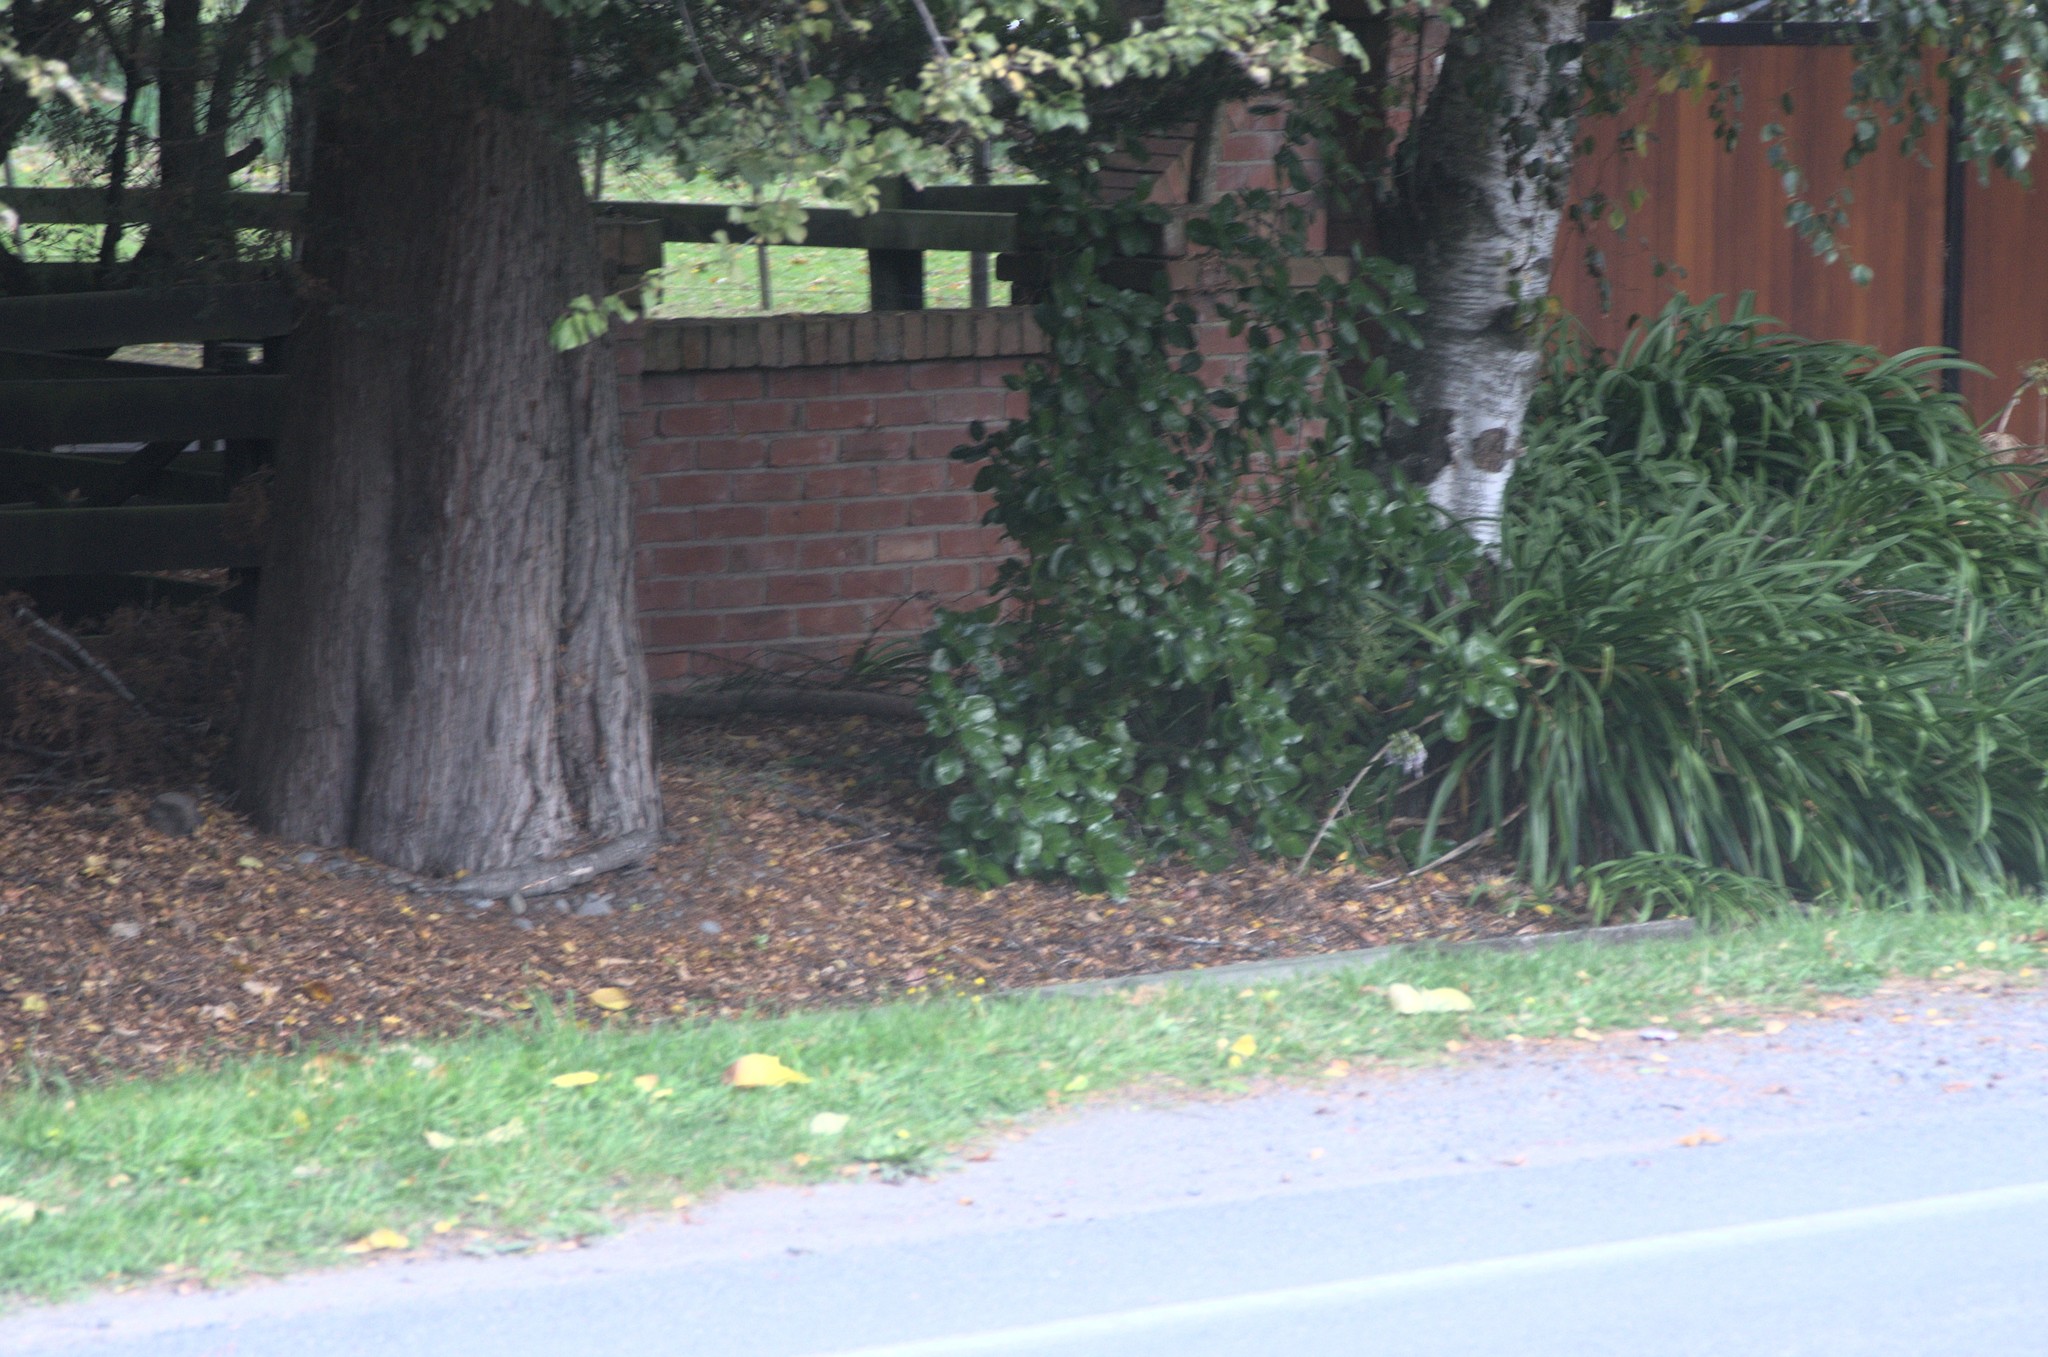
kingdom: Plantae
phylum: Tracheophyta
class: Magnoliopsida
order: Gentianales
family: Rubiaceae
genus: Coprosma
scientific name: Coprosma repens
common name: Tree bedstraw
